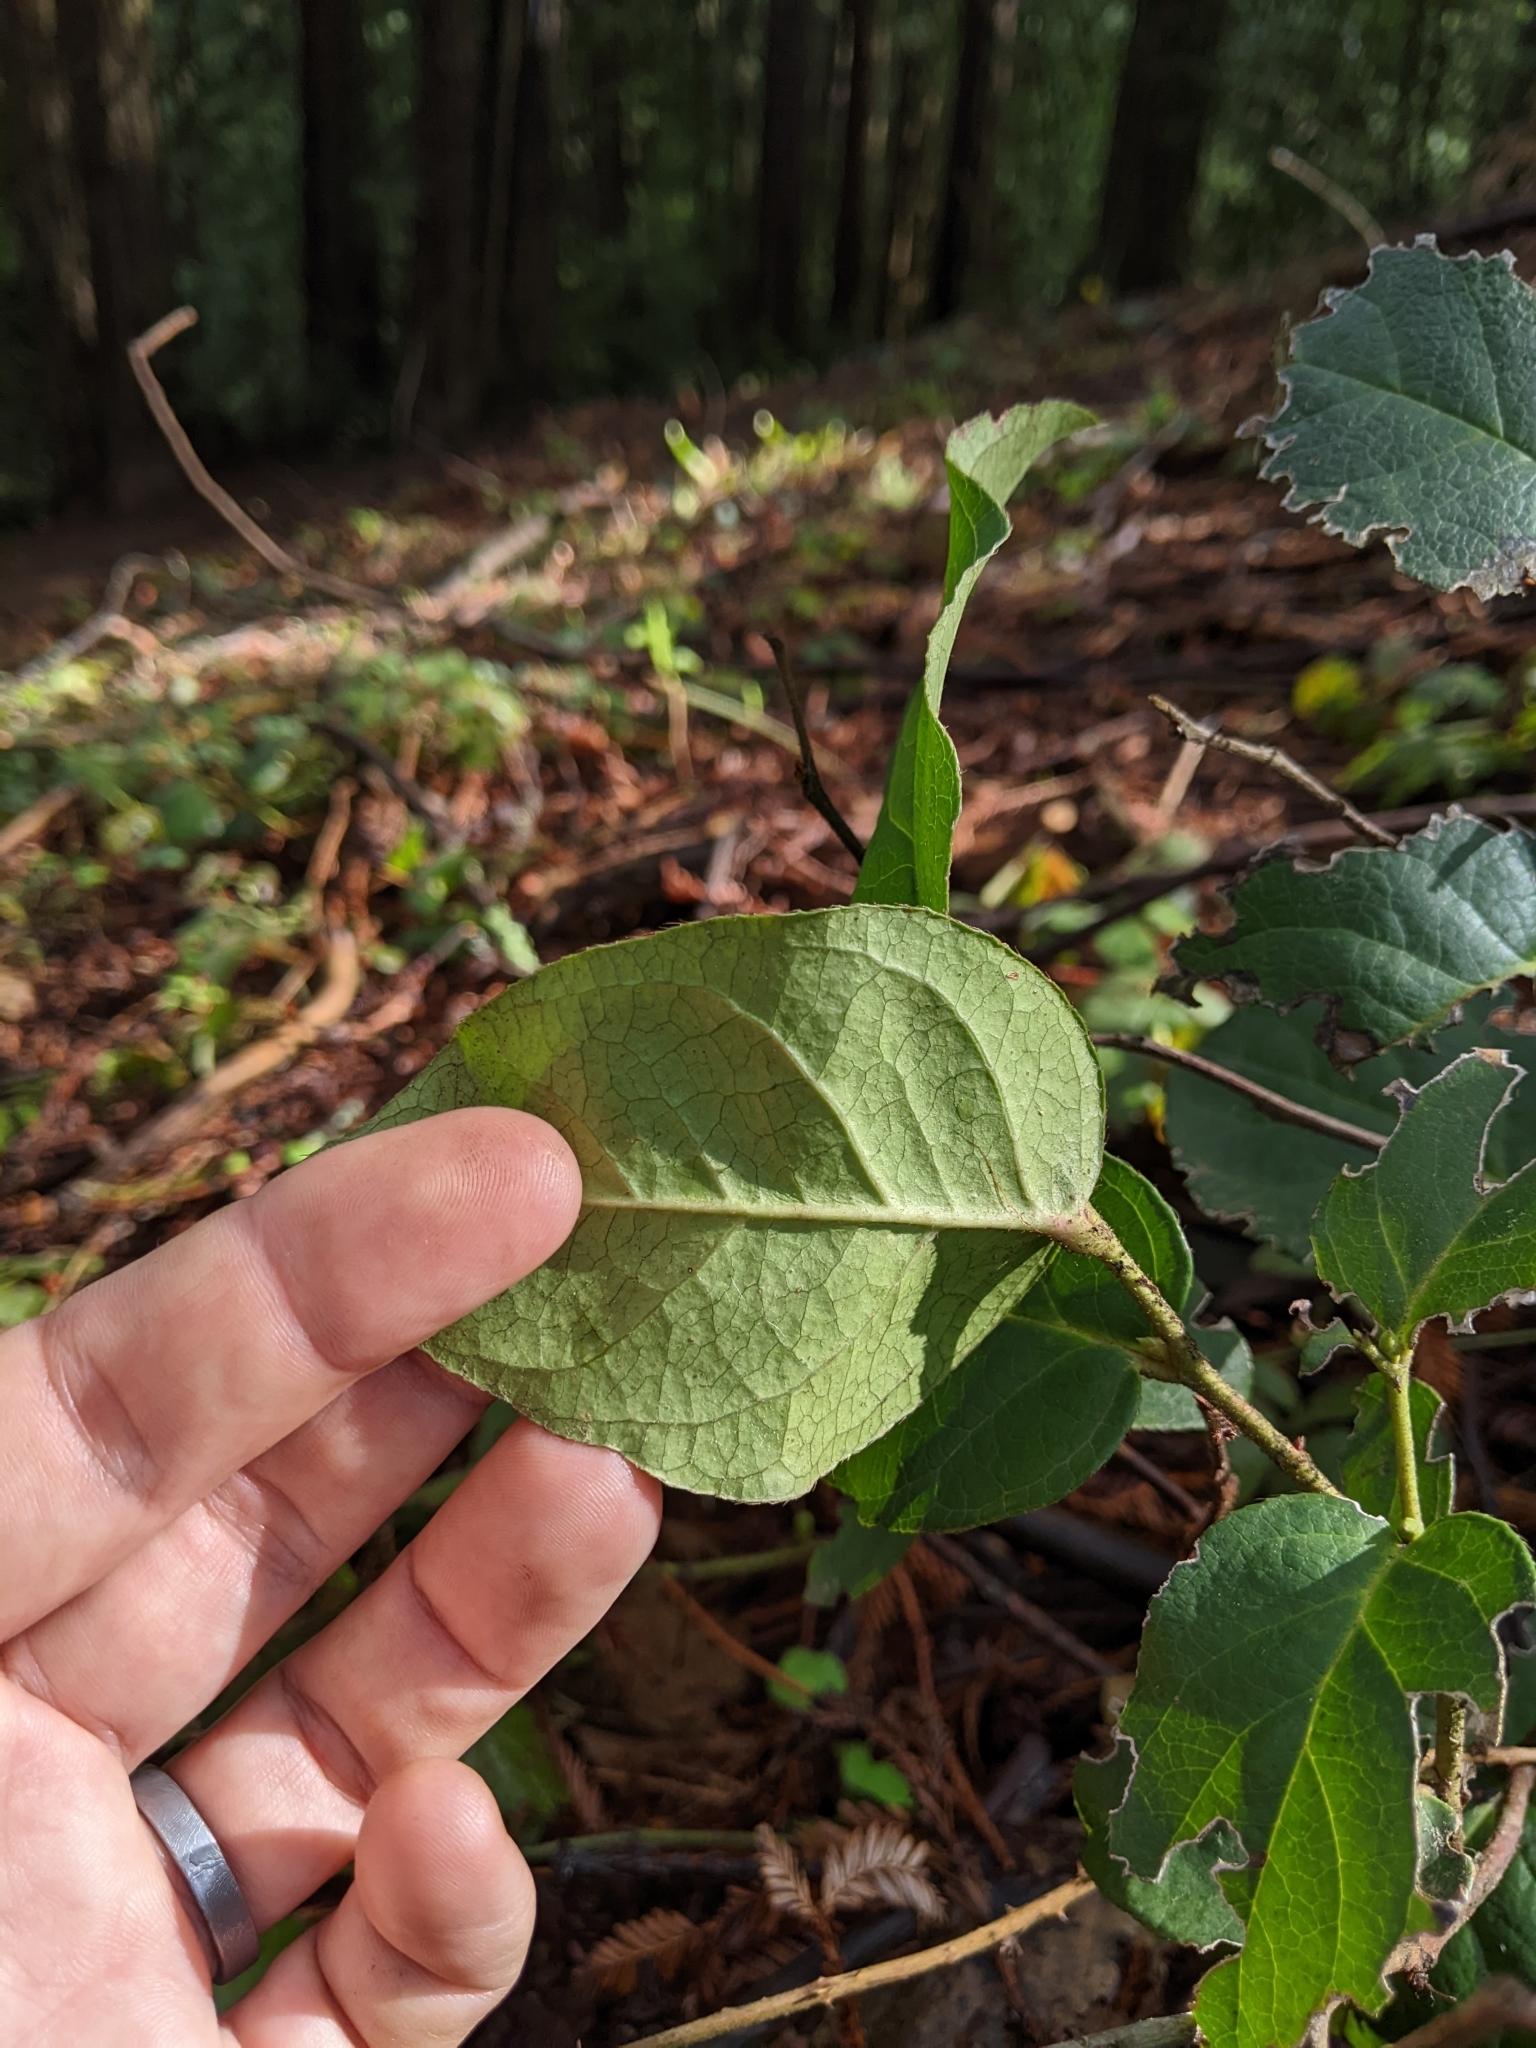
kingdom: Plantae
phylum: Tracheophyta
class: Magnoliopsida
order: Ericales
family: Ericaceae
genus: Gaultheria
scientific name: Gaultheria shallon
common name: Shallon
